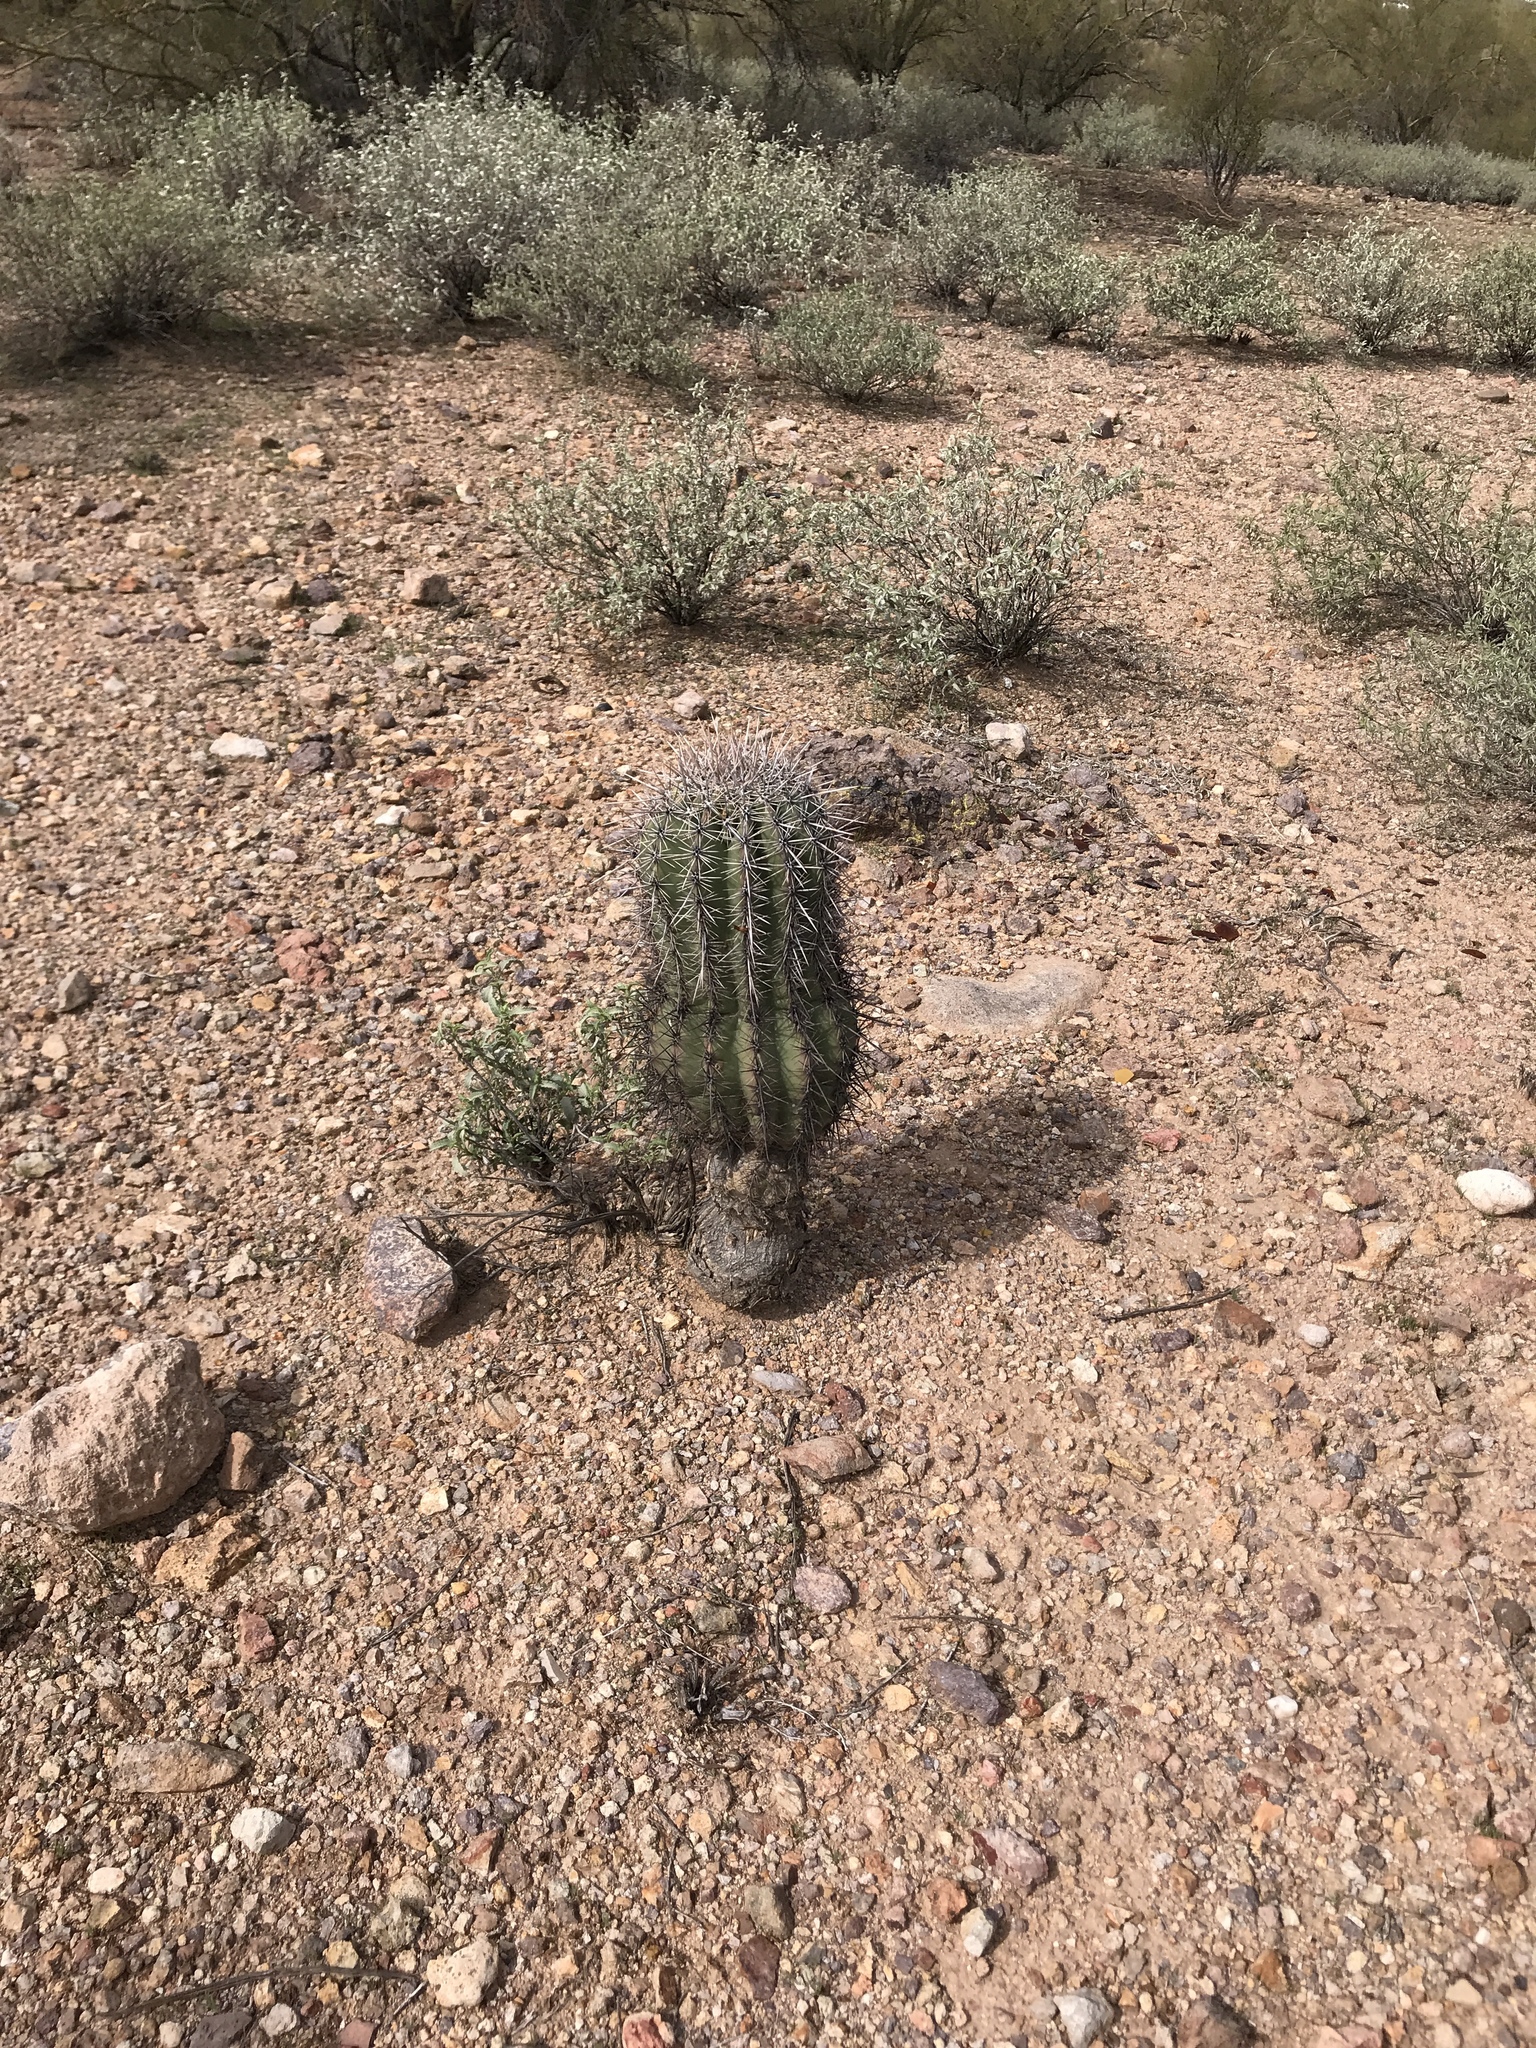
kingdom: Plantae
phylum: Tracheophyta
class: Magnoliopsida
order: Caryophyllales
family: Cactaceae
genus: Carnegiea
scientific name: Carnegiea gigantea
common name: Saguaro
